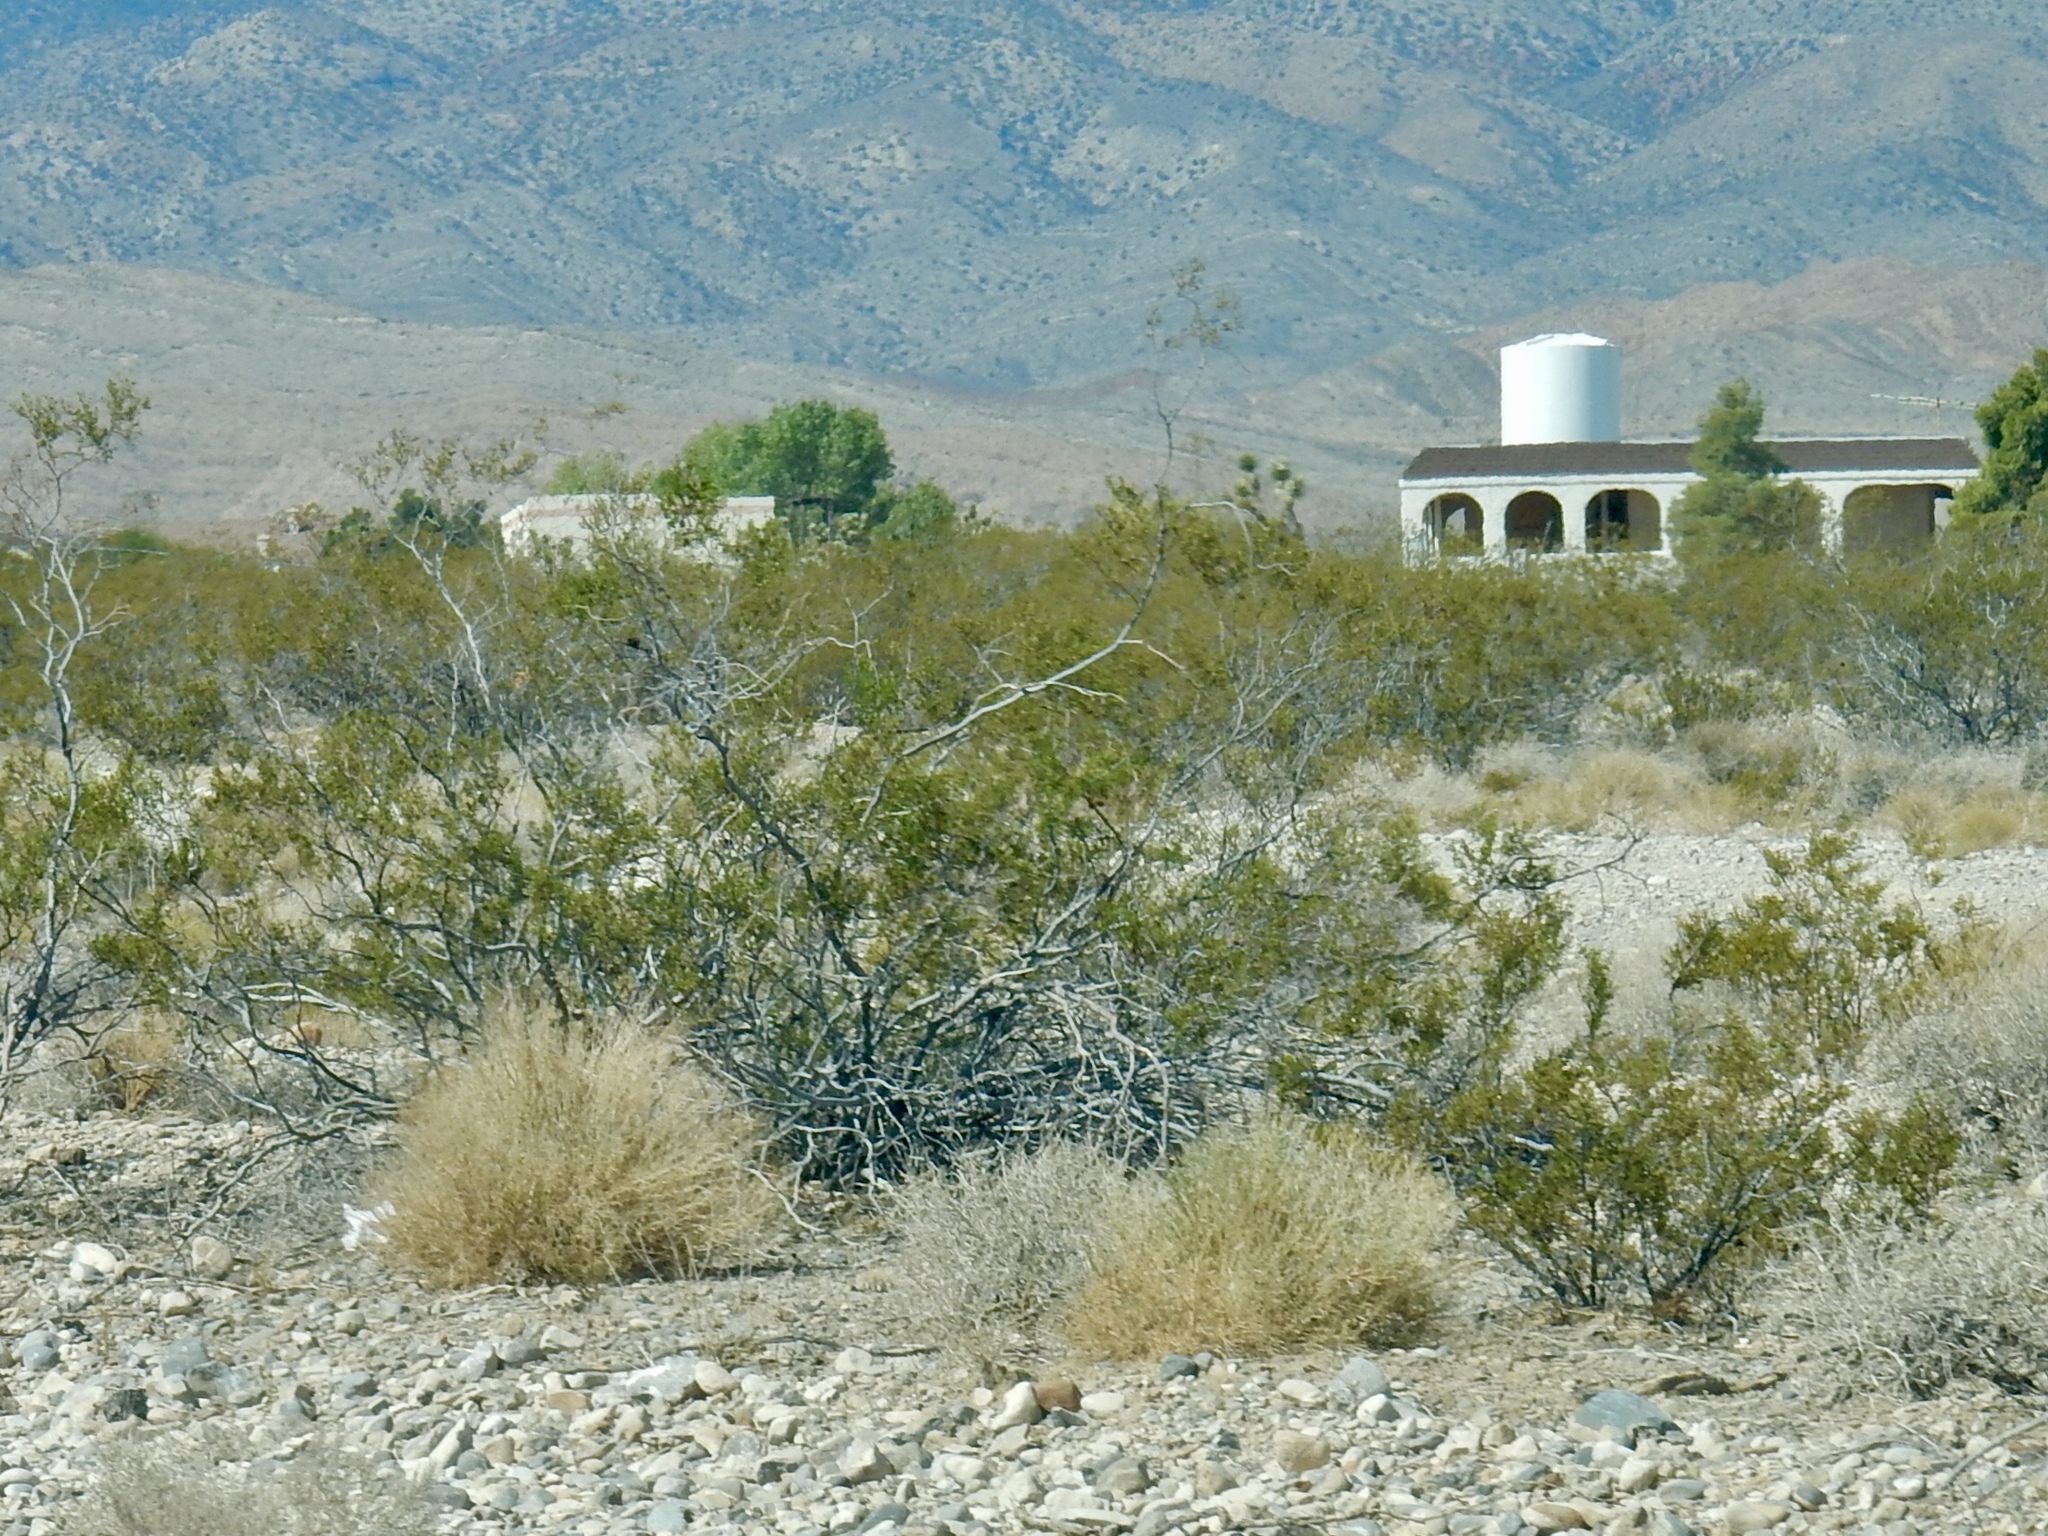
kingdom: Plantae
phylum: Tracheophyta
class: Magnoliopsida
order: Zygophyllales
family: Zygophyllaceae
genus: Larrea
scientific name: Larrea tridentata
